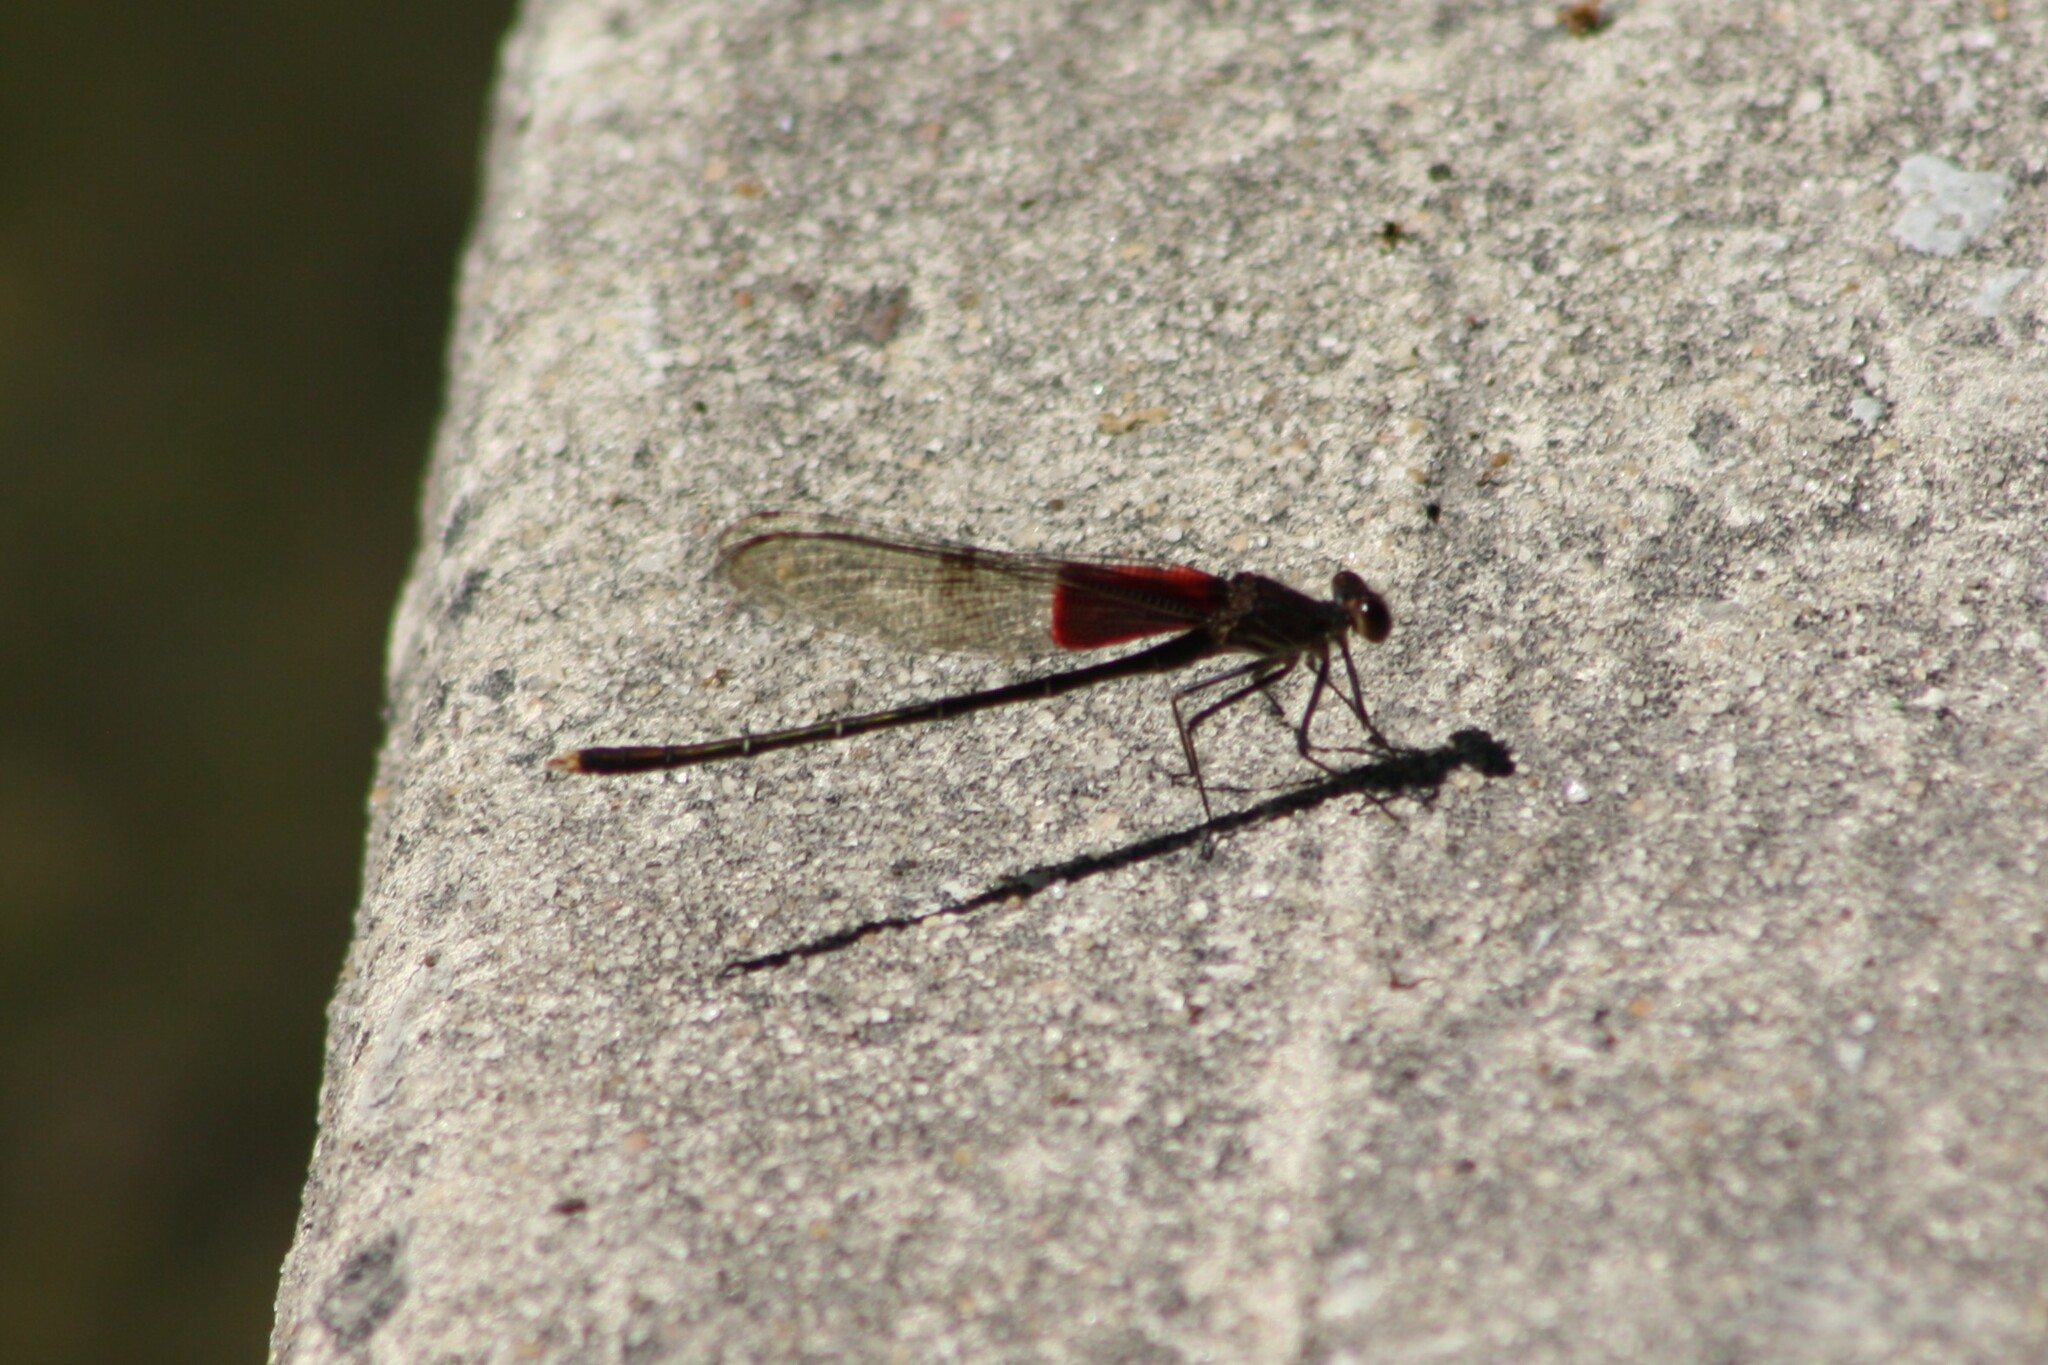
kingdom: Animalia
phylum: Arthropoda
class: Insecta
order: Odonata
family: Calopterygidae
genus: Hetaerina
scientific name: Hetaerina americana
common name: American rubyspot
